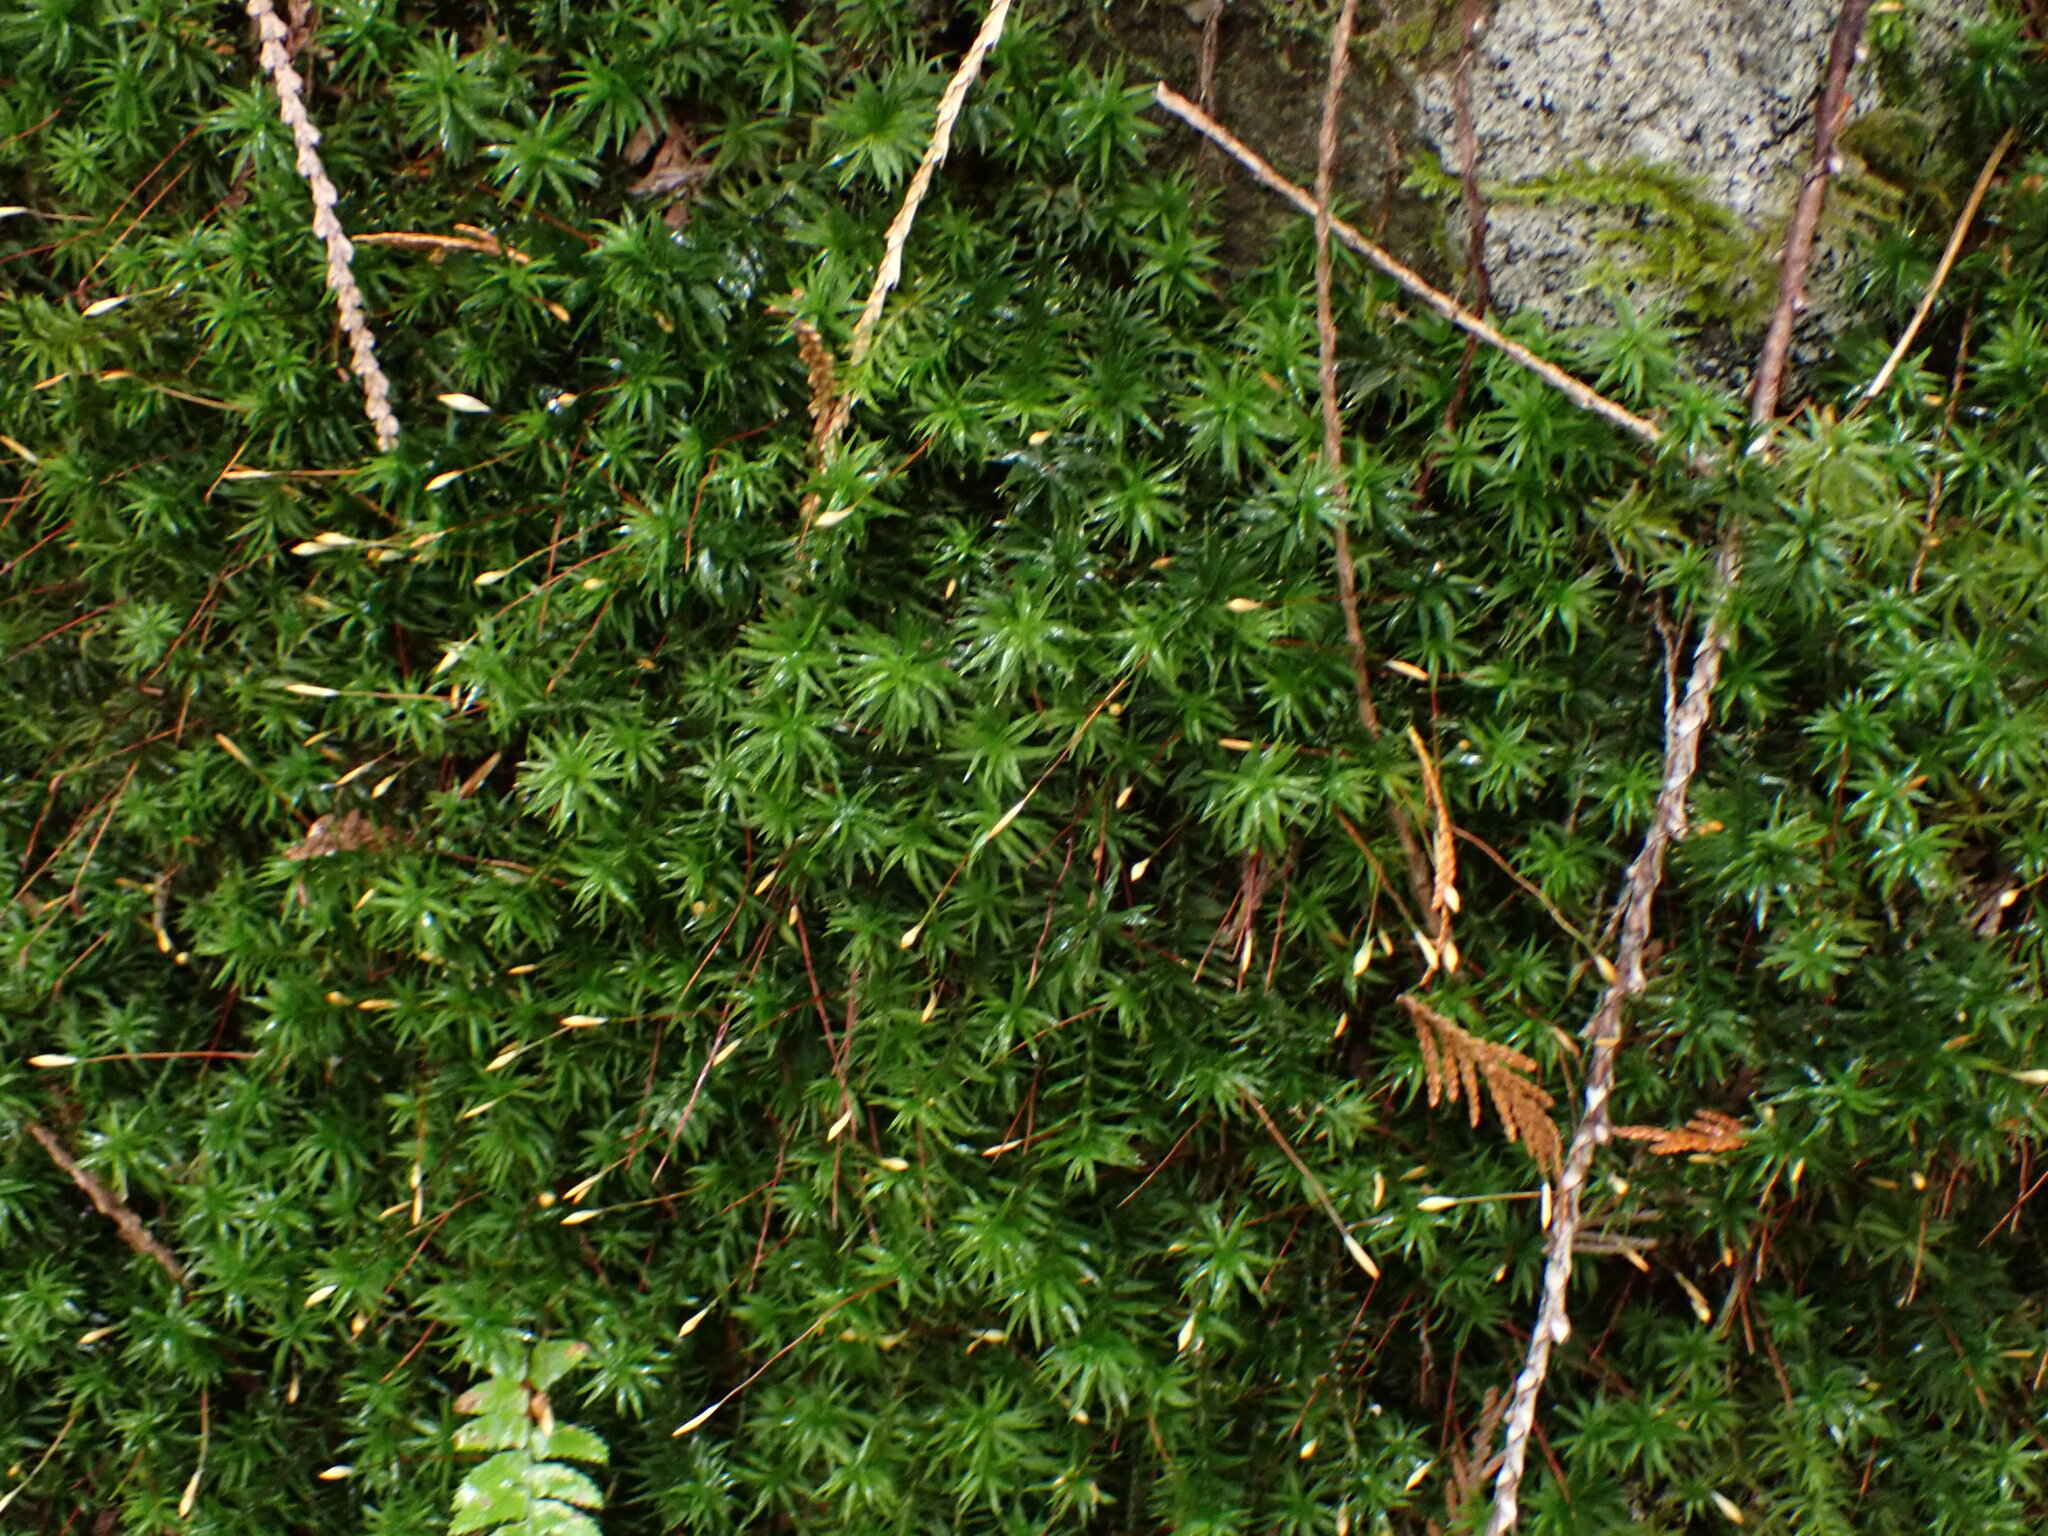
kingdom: Plantae
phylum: Bryophyta
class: Polytrichopsida
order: Polytrichales
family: Polytrichaceae
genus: Pogonatum
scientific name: Pogonatum contortum
